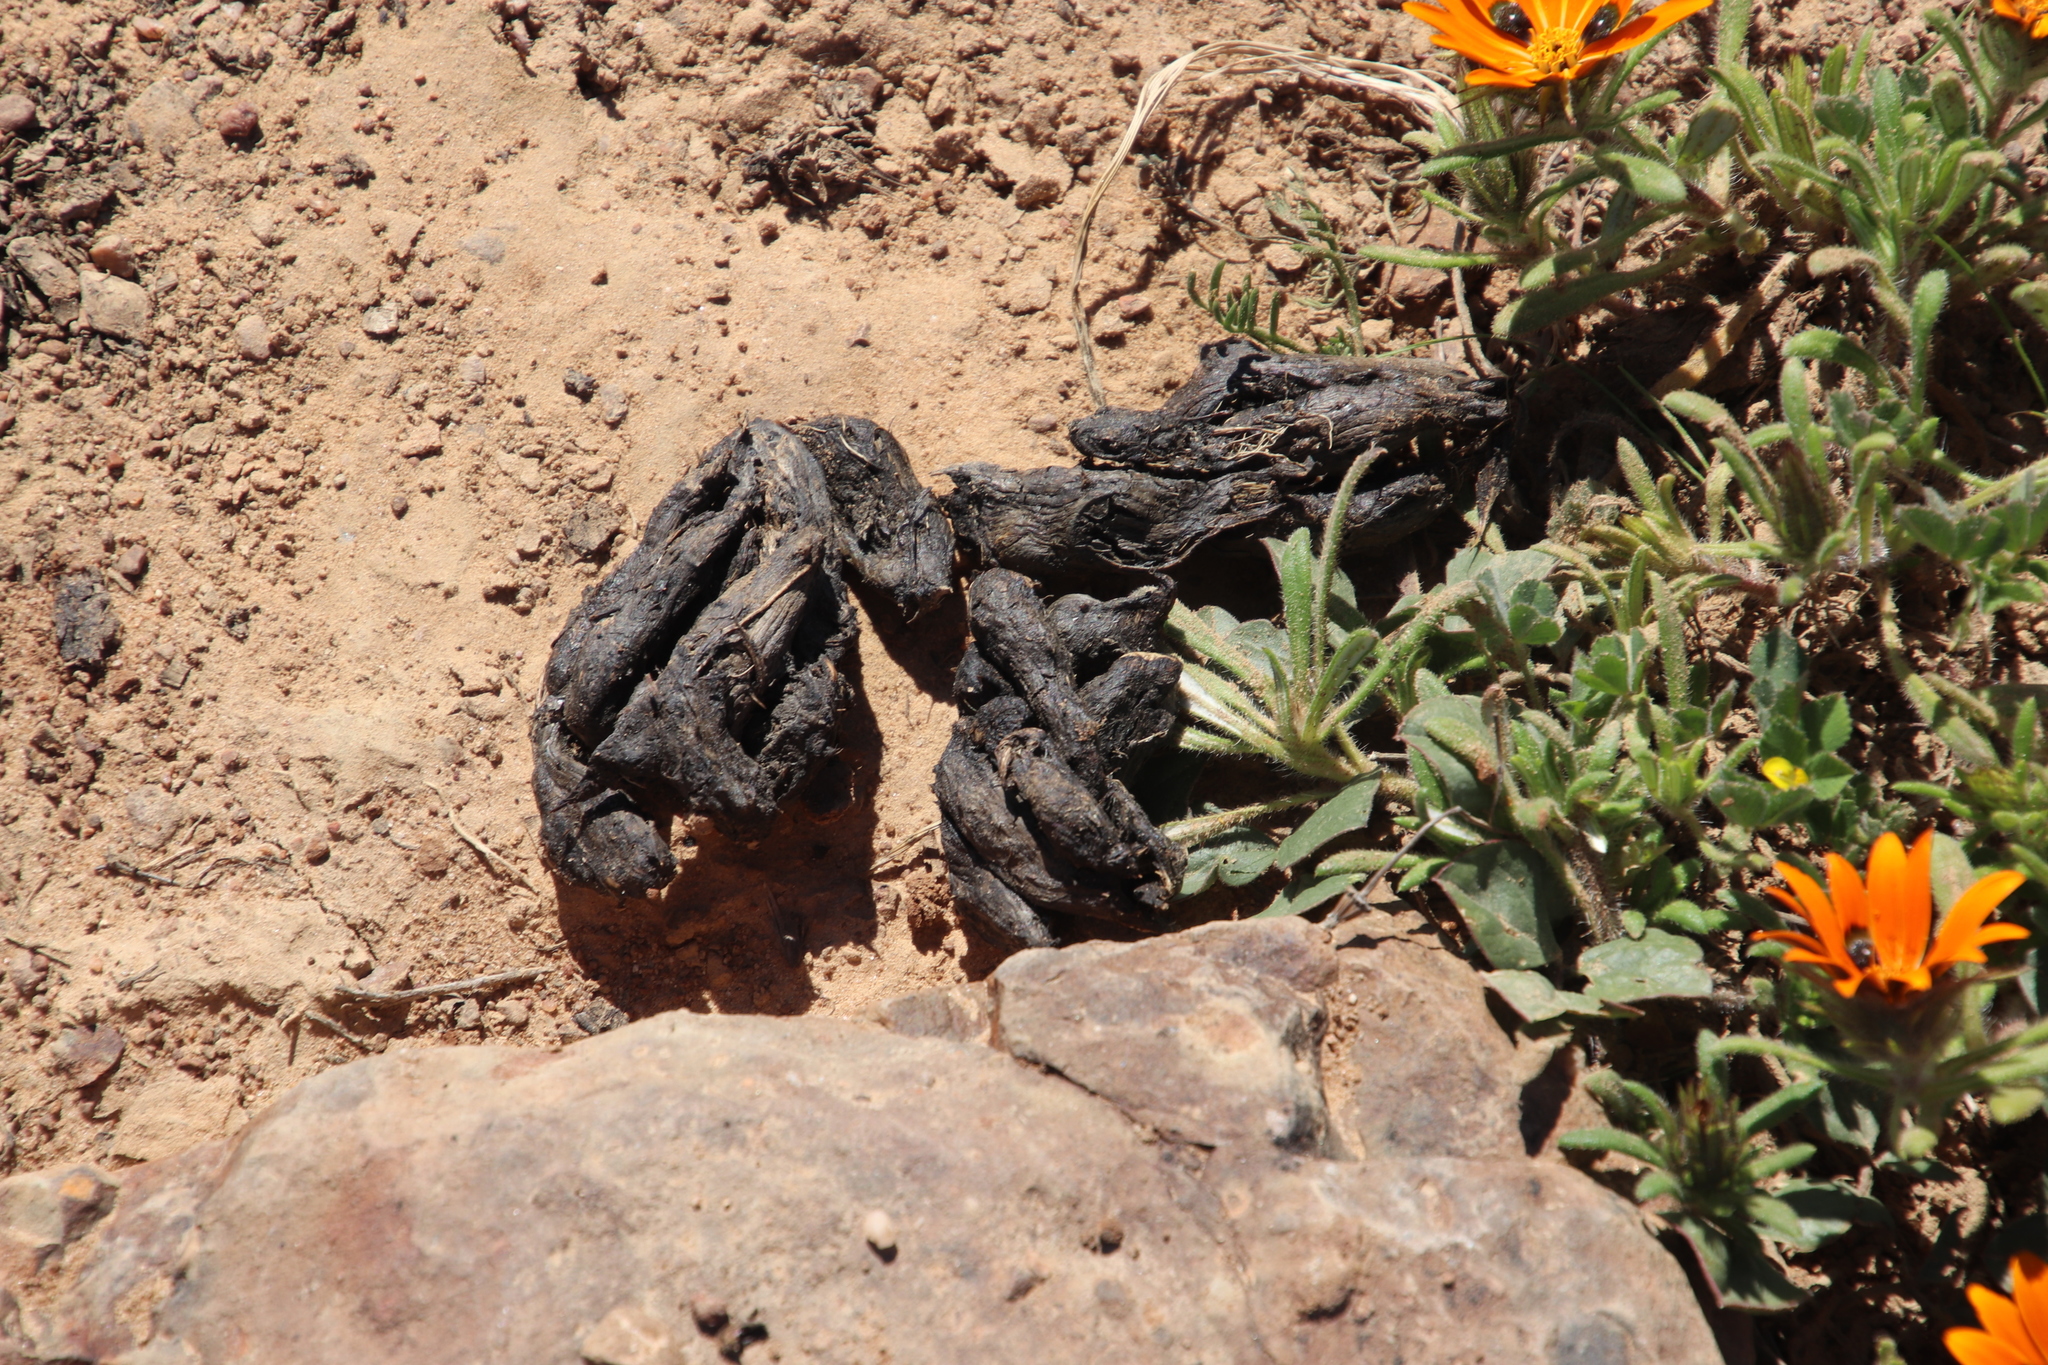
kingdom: Animalia
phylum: Chordata
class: Mammalia
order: Rodentia
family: Hystricidae
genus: Hystrix
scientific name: Hystrix africaeaustralis
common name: Cape porcupine
